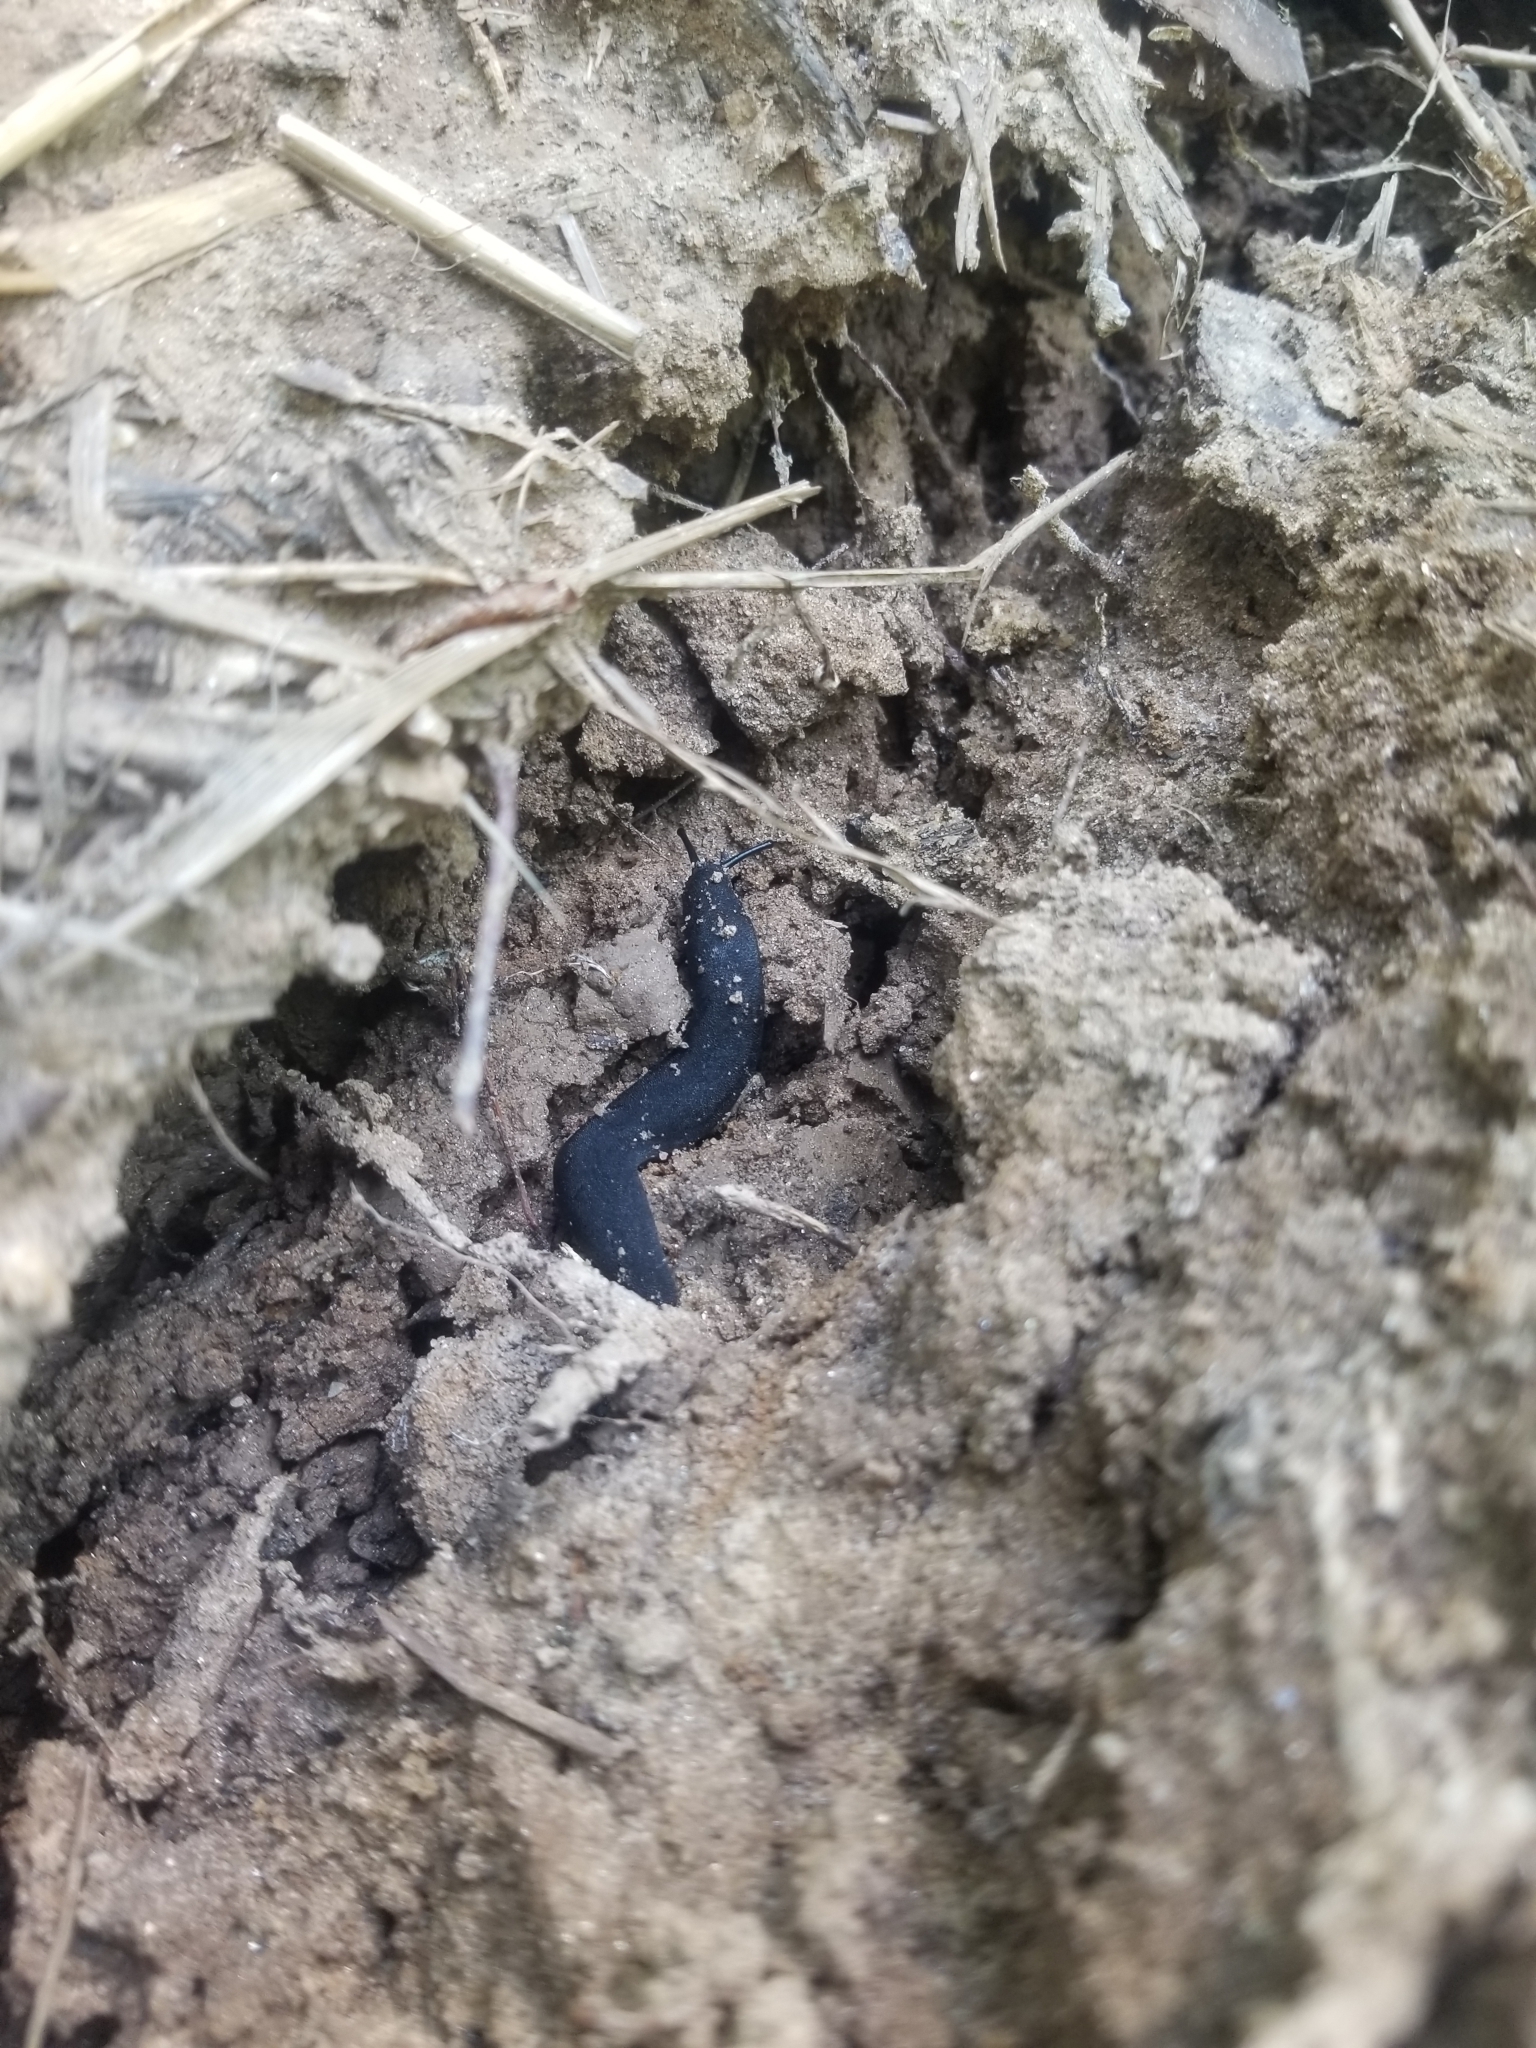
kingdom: Animalia
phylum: Mollusca
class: Gastropoda
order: Systellommatophora
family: Veronicellidae
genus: Belocaulus
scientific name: Belocaulus angustipes
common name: Black velvet leatherleaf slug
